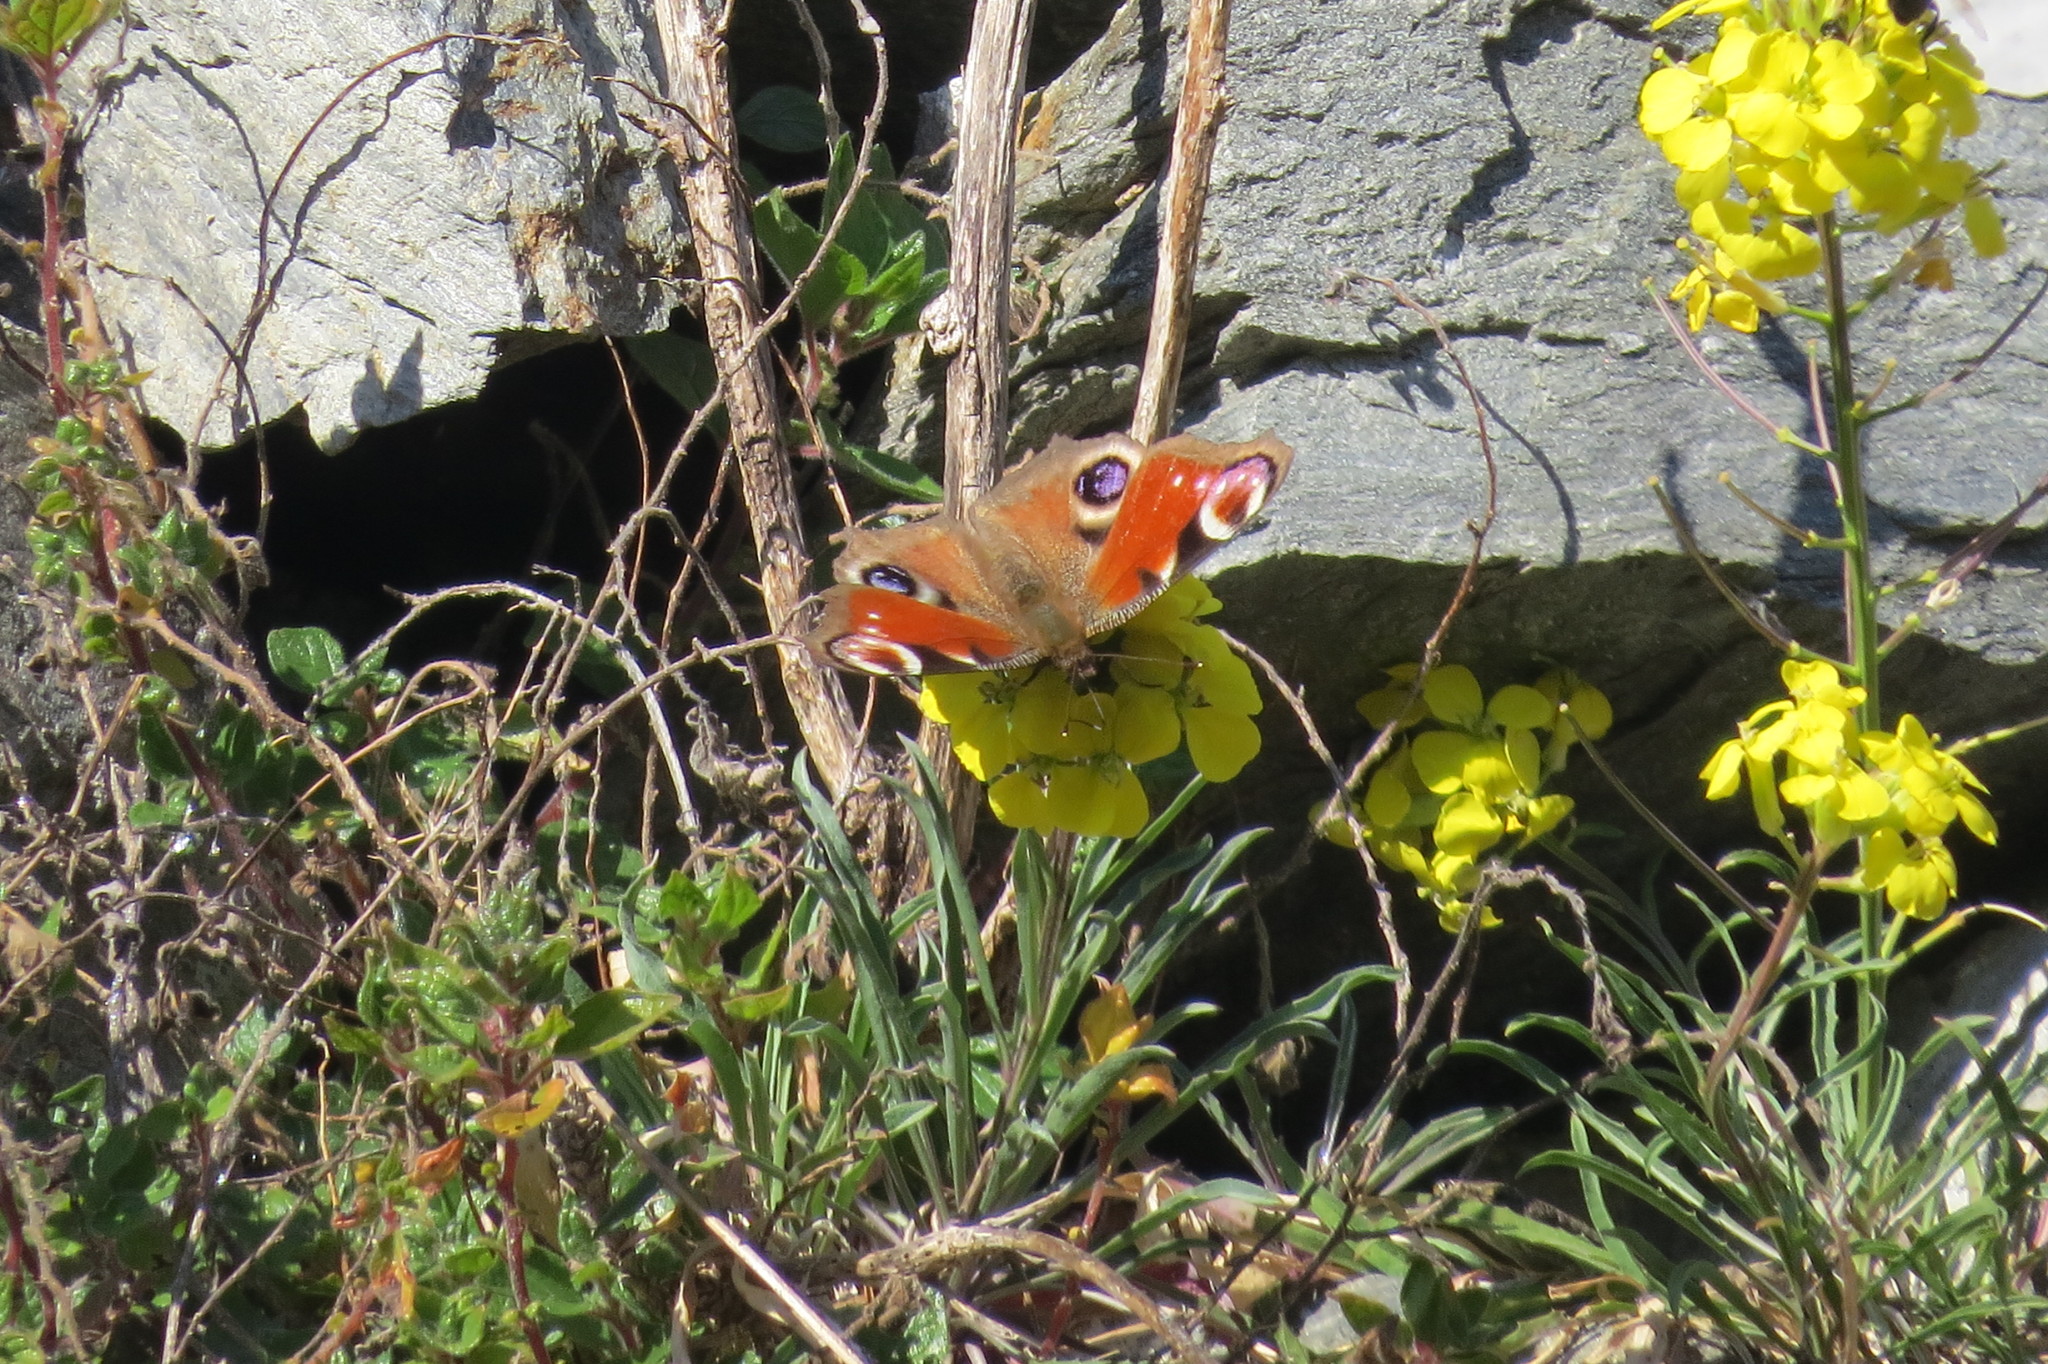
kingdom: Animalia
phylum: Arthropoda
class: Insecta
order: Lepidoptera
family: Nymphalidae
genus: Aglais
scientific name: Aglais io
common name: Peacock
